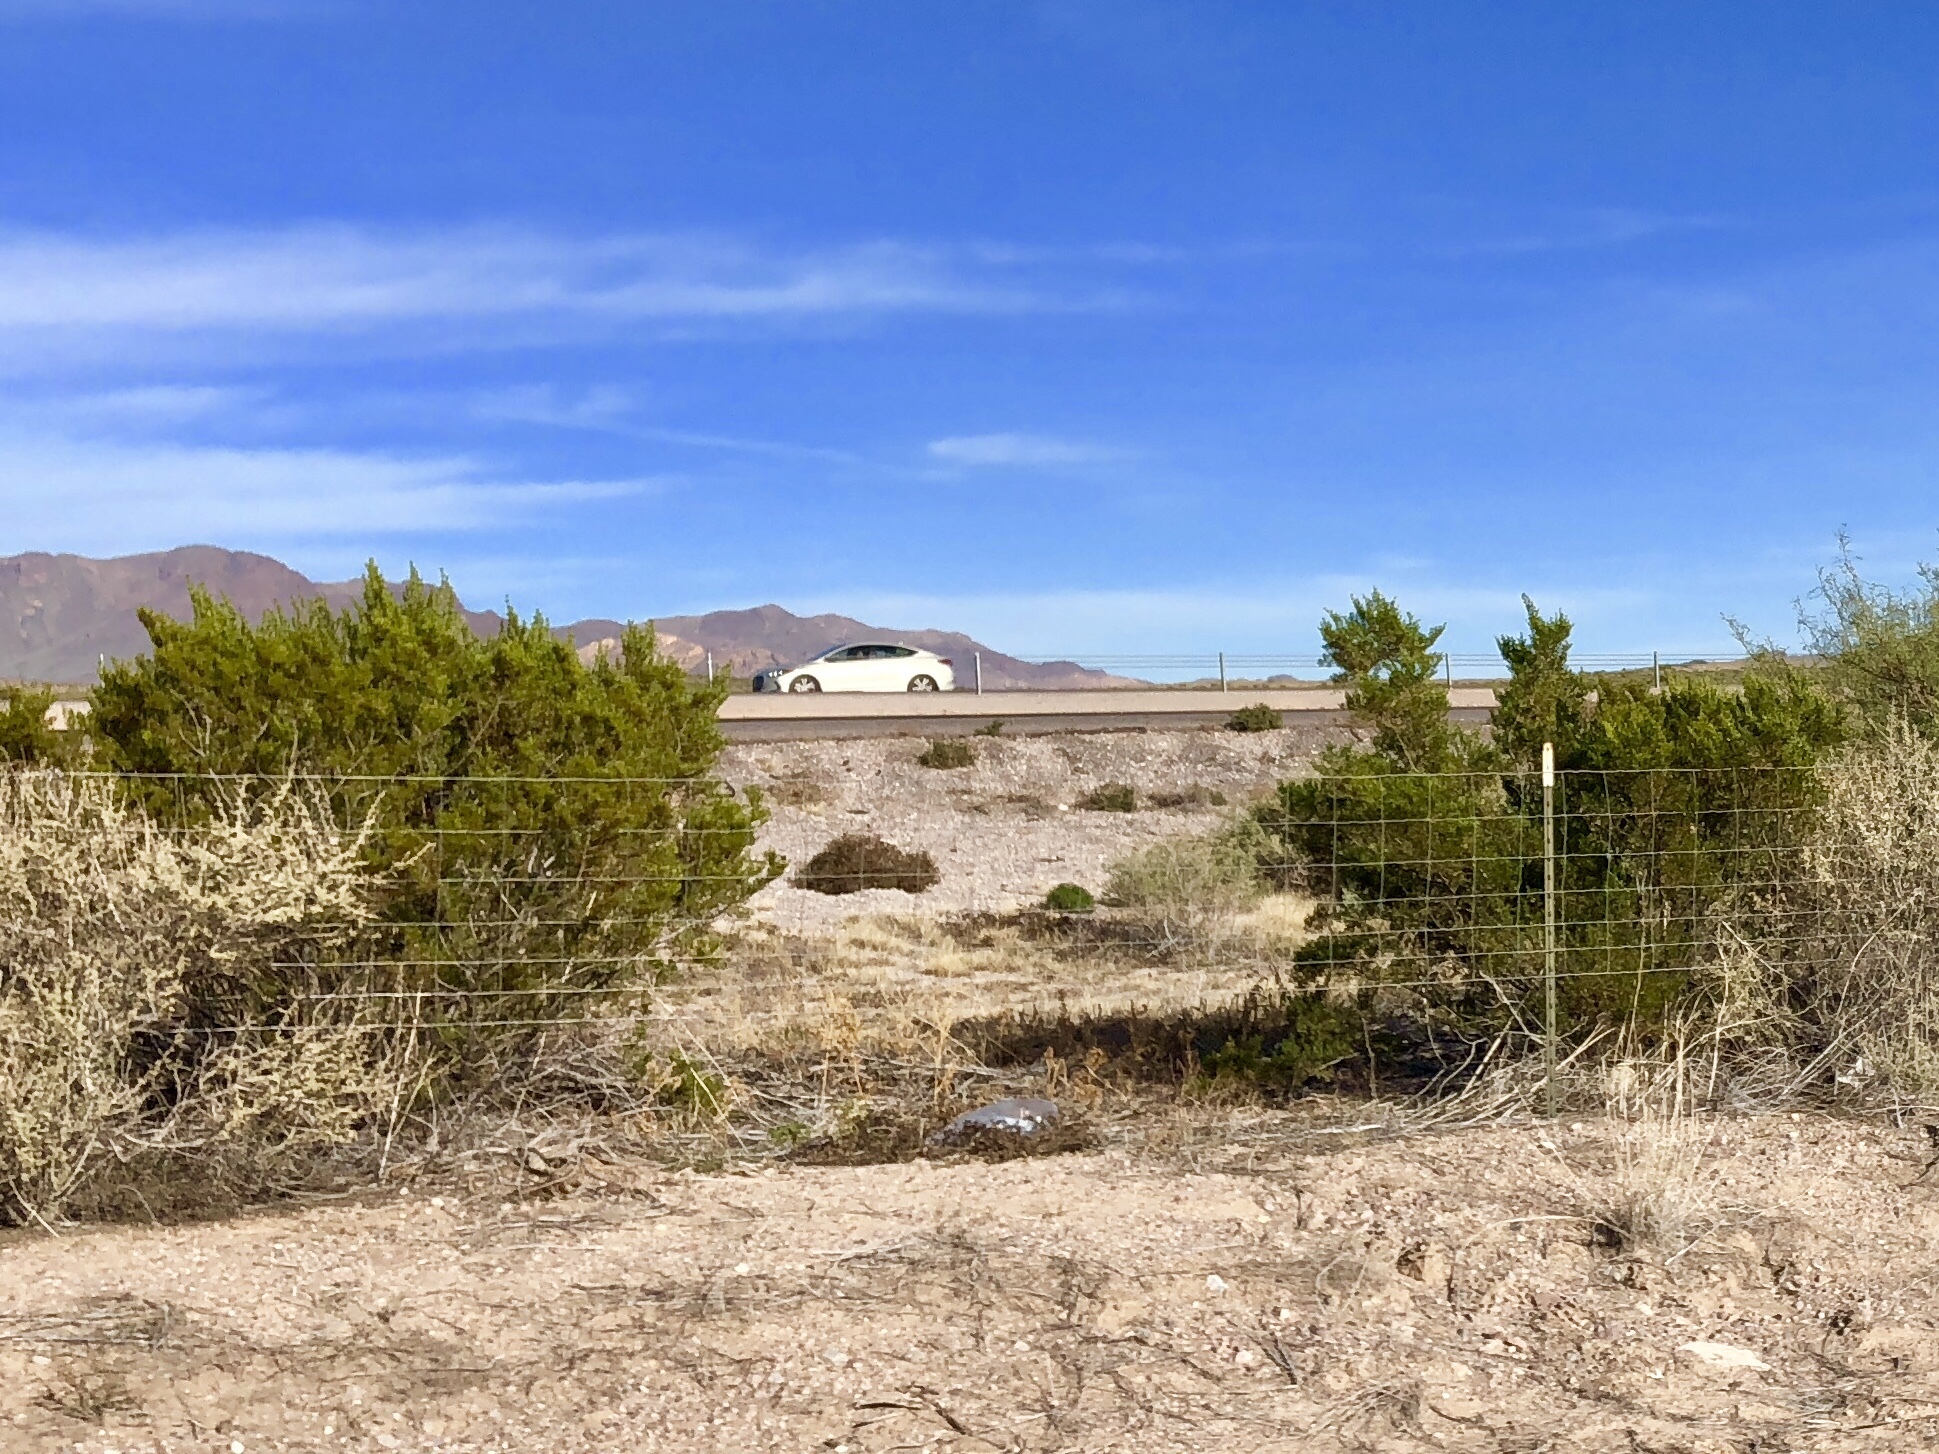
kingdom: Plantae
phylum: Tracheophyta
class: Magnoliopsida
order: Zygophyllales
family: Zygophyllaceae
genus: Larrea
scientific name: Larrea tridentata
